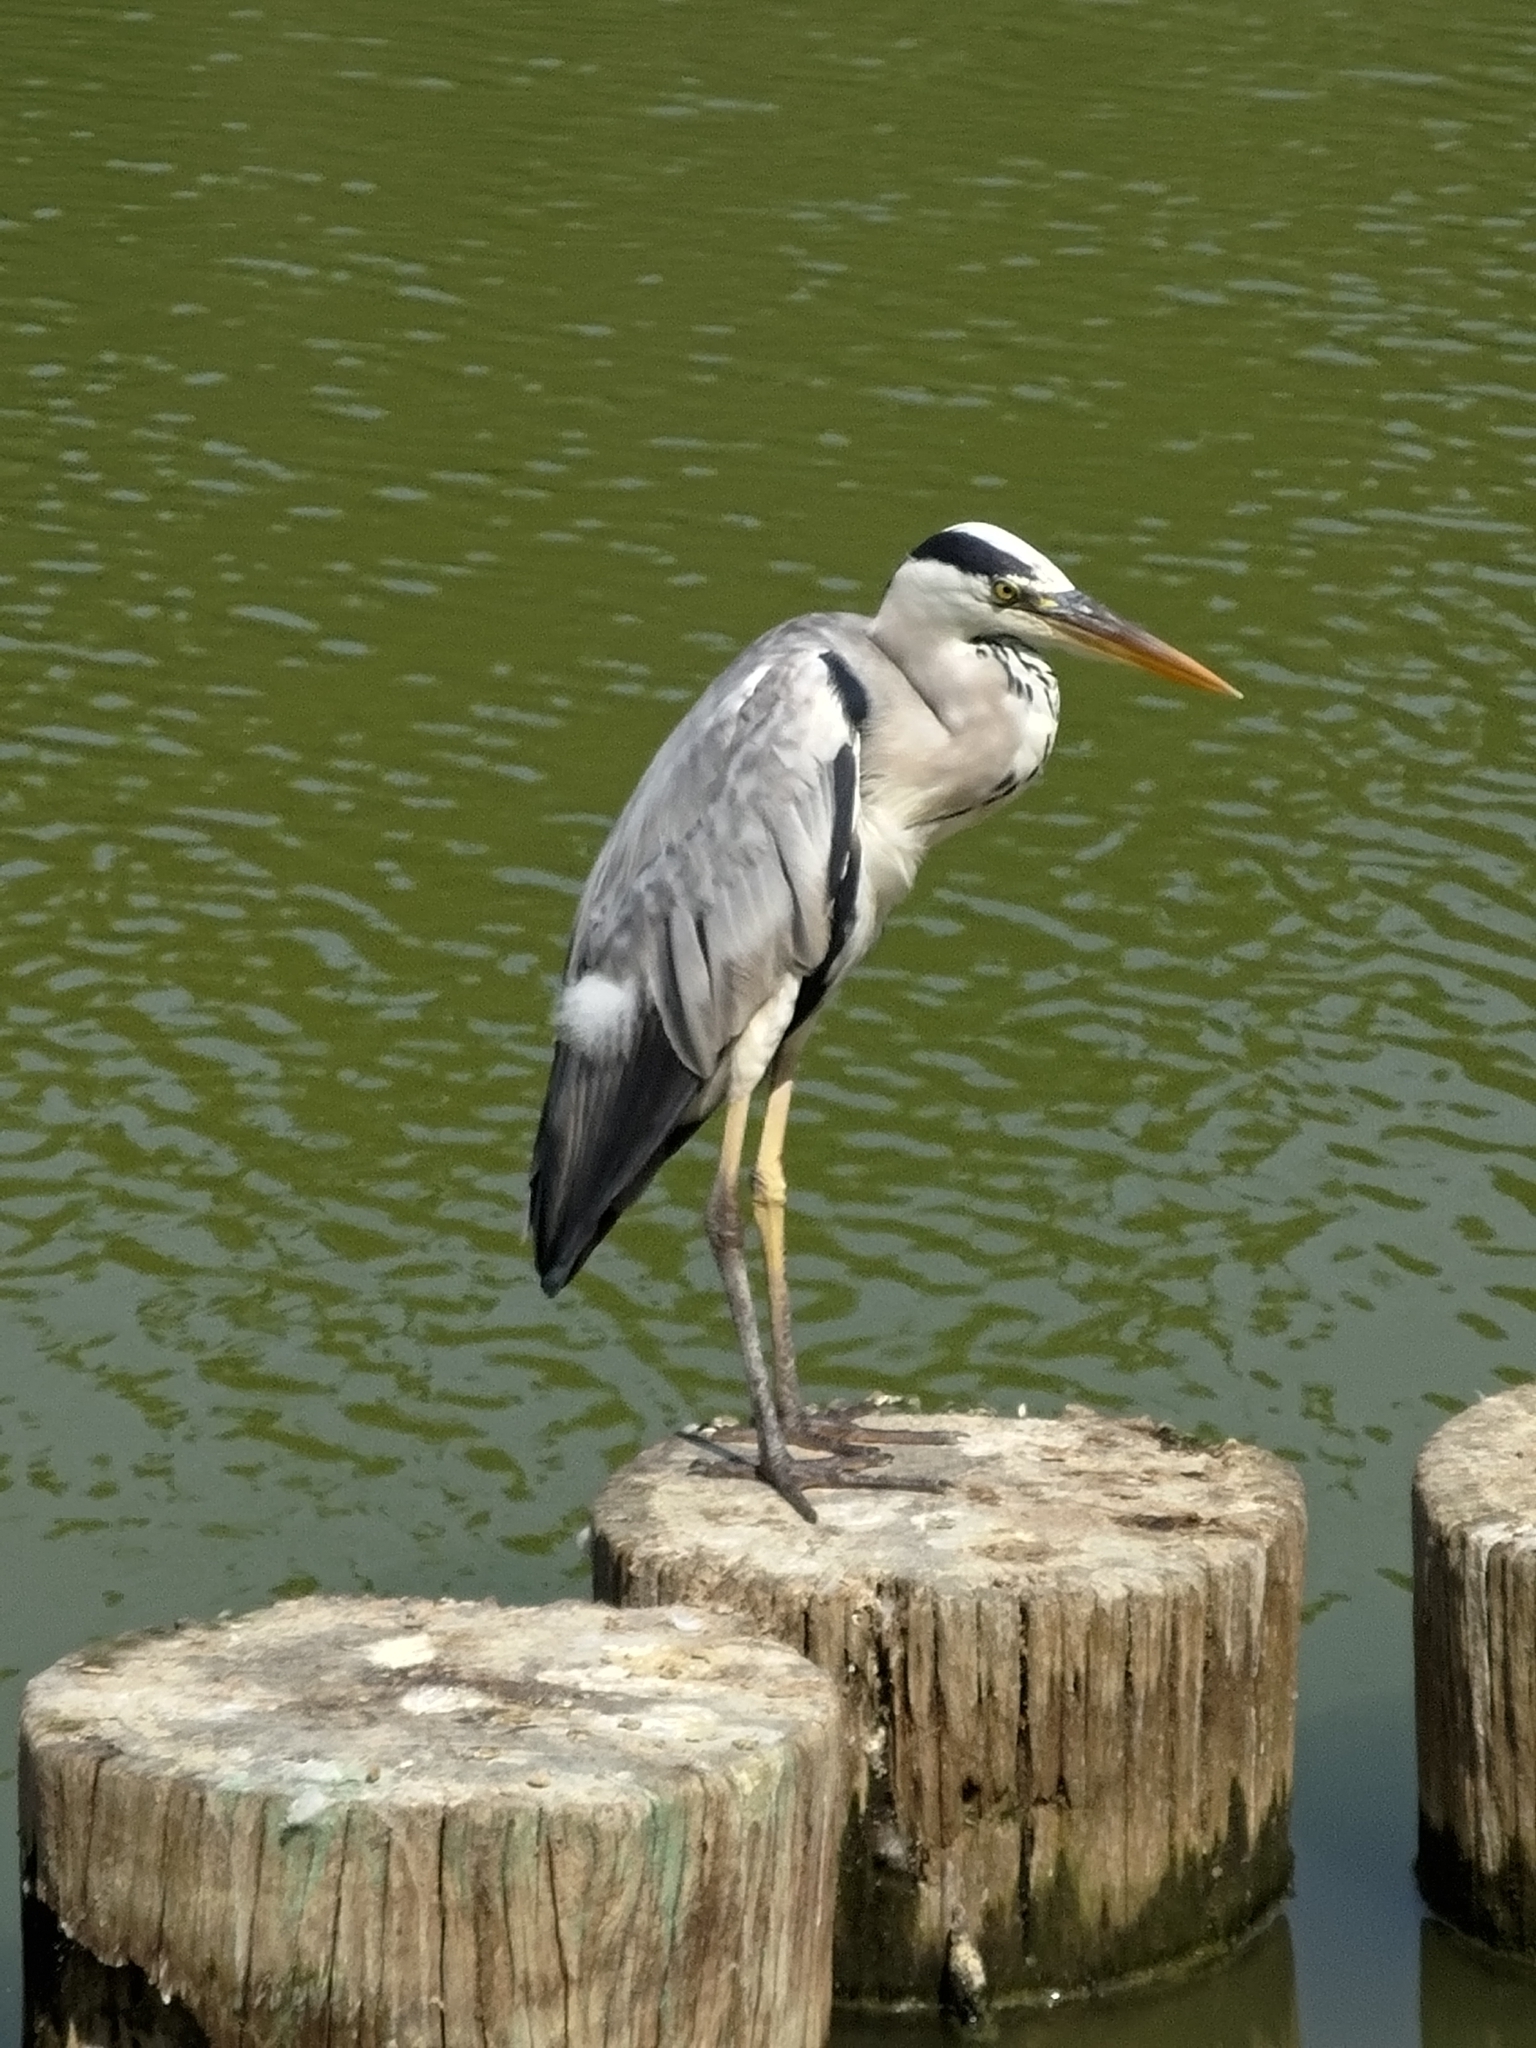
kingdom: Animalia
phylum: Chordata
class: Aves
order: Pelecaniformes
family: Ardeidae
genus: Ardea
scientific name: Ardea cinerea
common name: Grey heron
